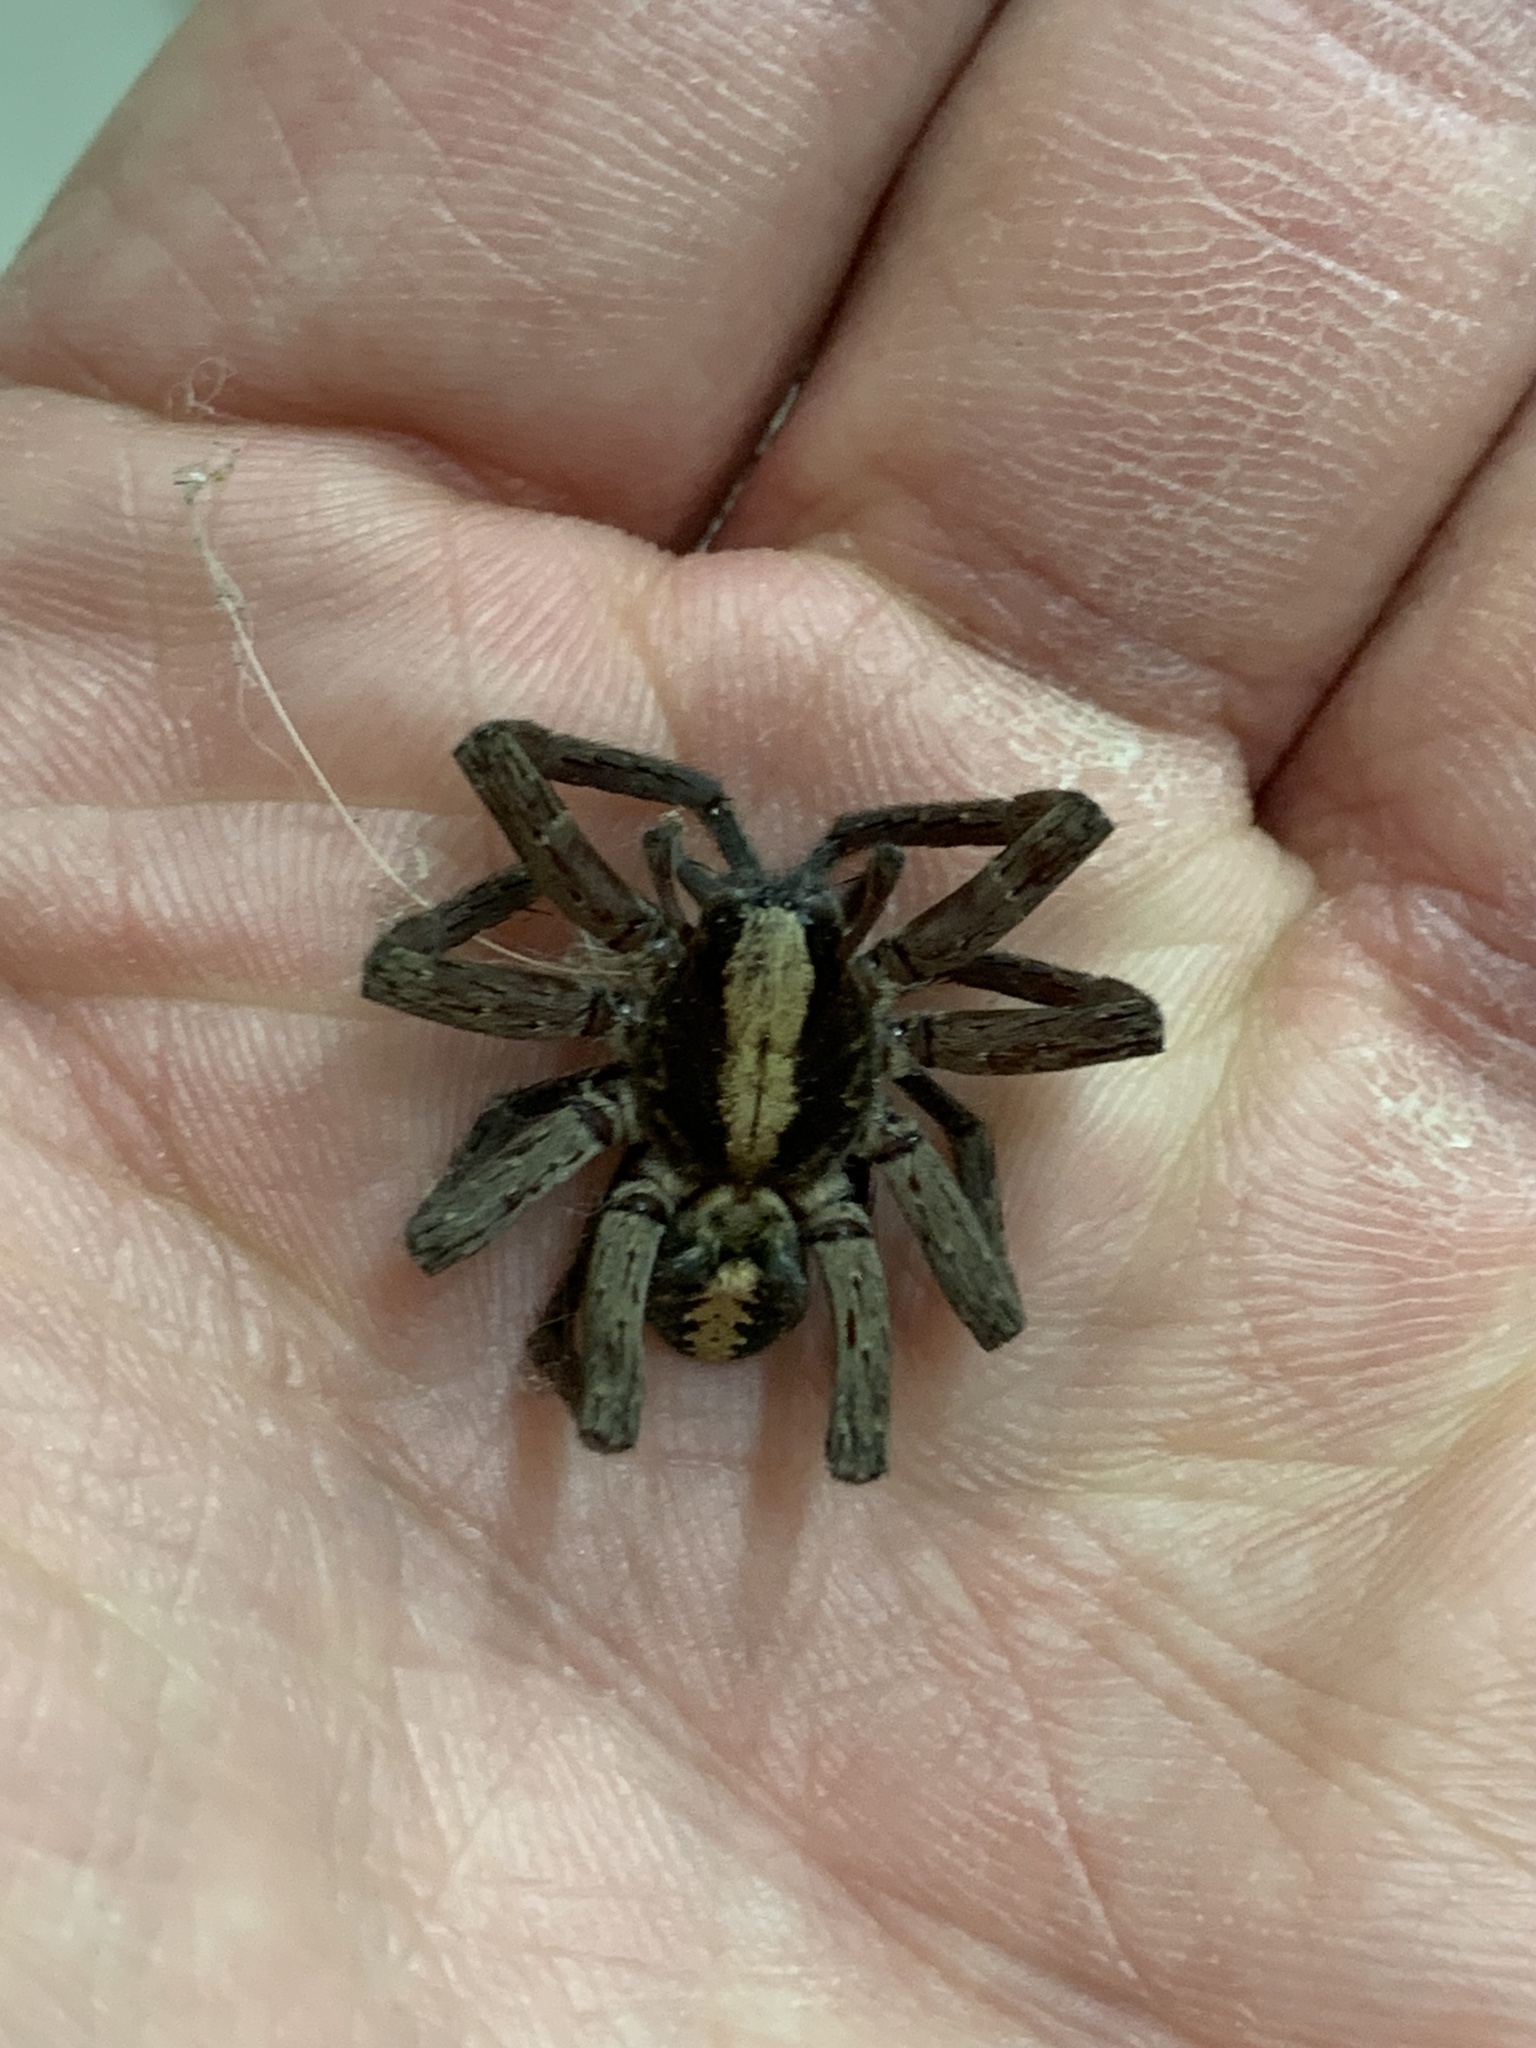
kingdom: Animalia
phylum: Arthropoda
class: Arachnida
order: Araneae
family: Ctenidae
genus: Ctenus
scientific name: Ctenus hibernalis
